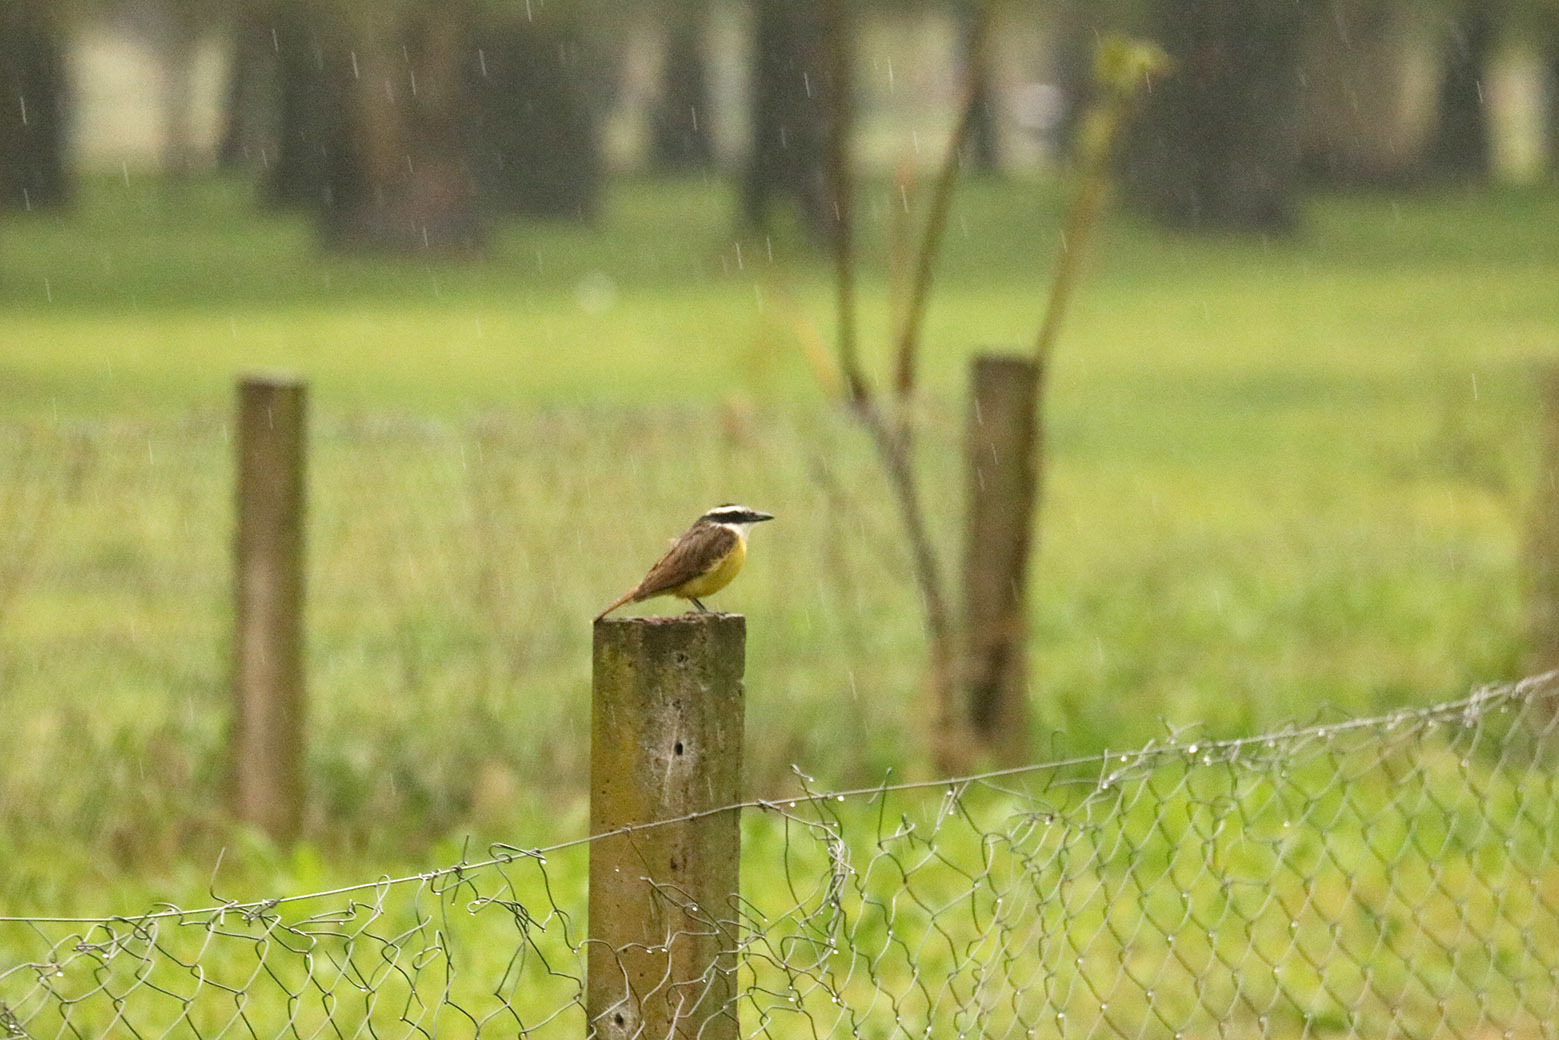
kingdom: Animalia
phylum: Chordata
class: Aves
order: Passeriformes
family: Tyrannidae
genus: Pitangus
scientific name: Pitangus sulphuratus
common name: Great kiskadee
